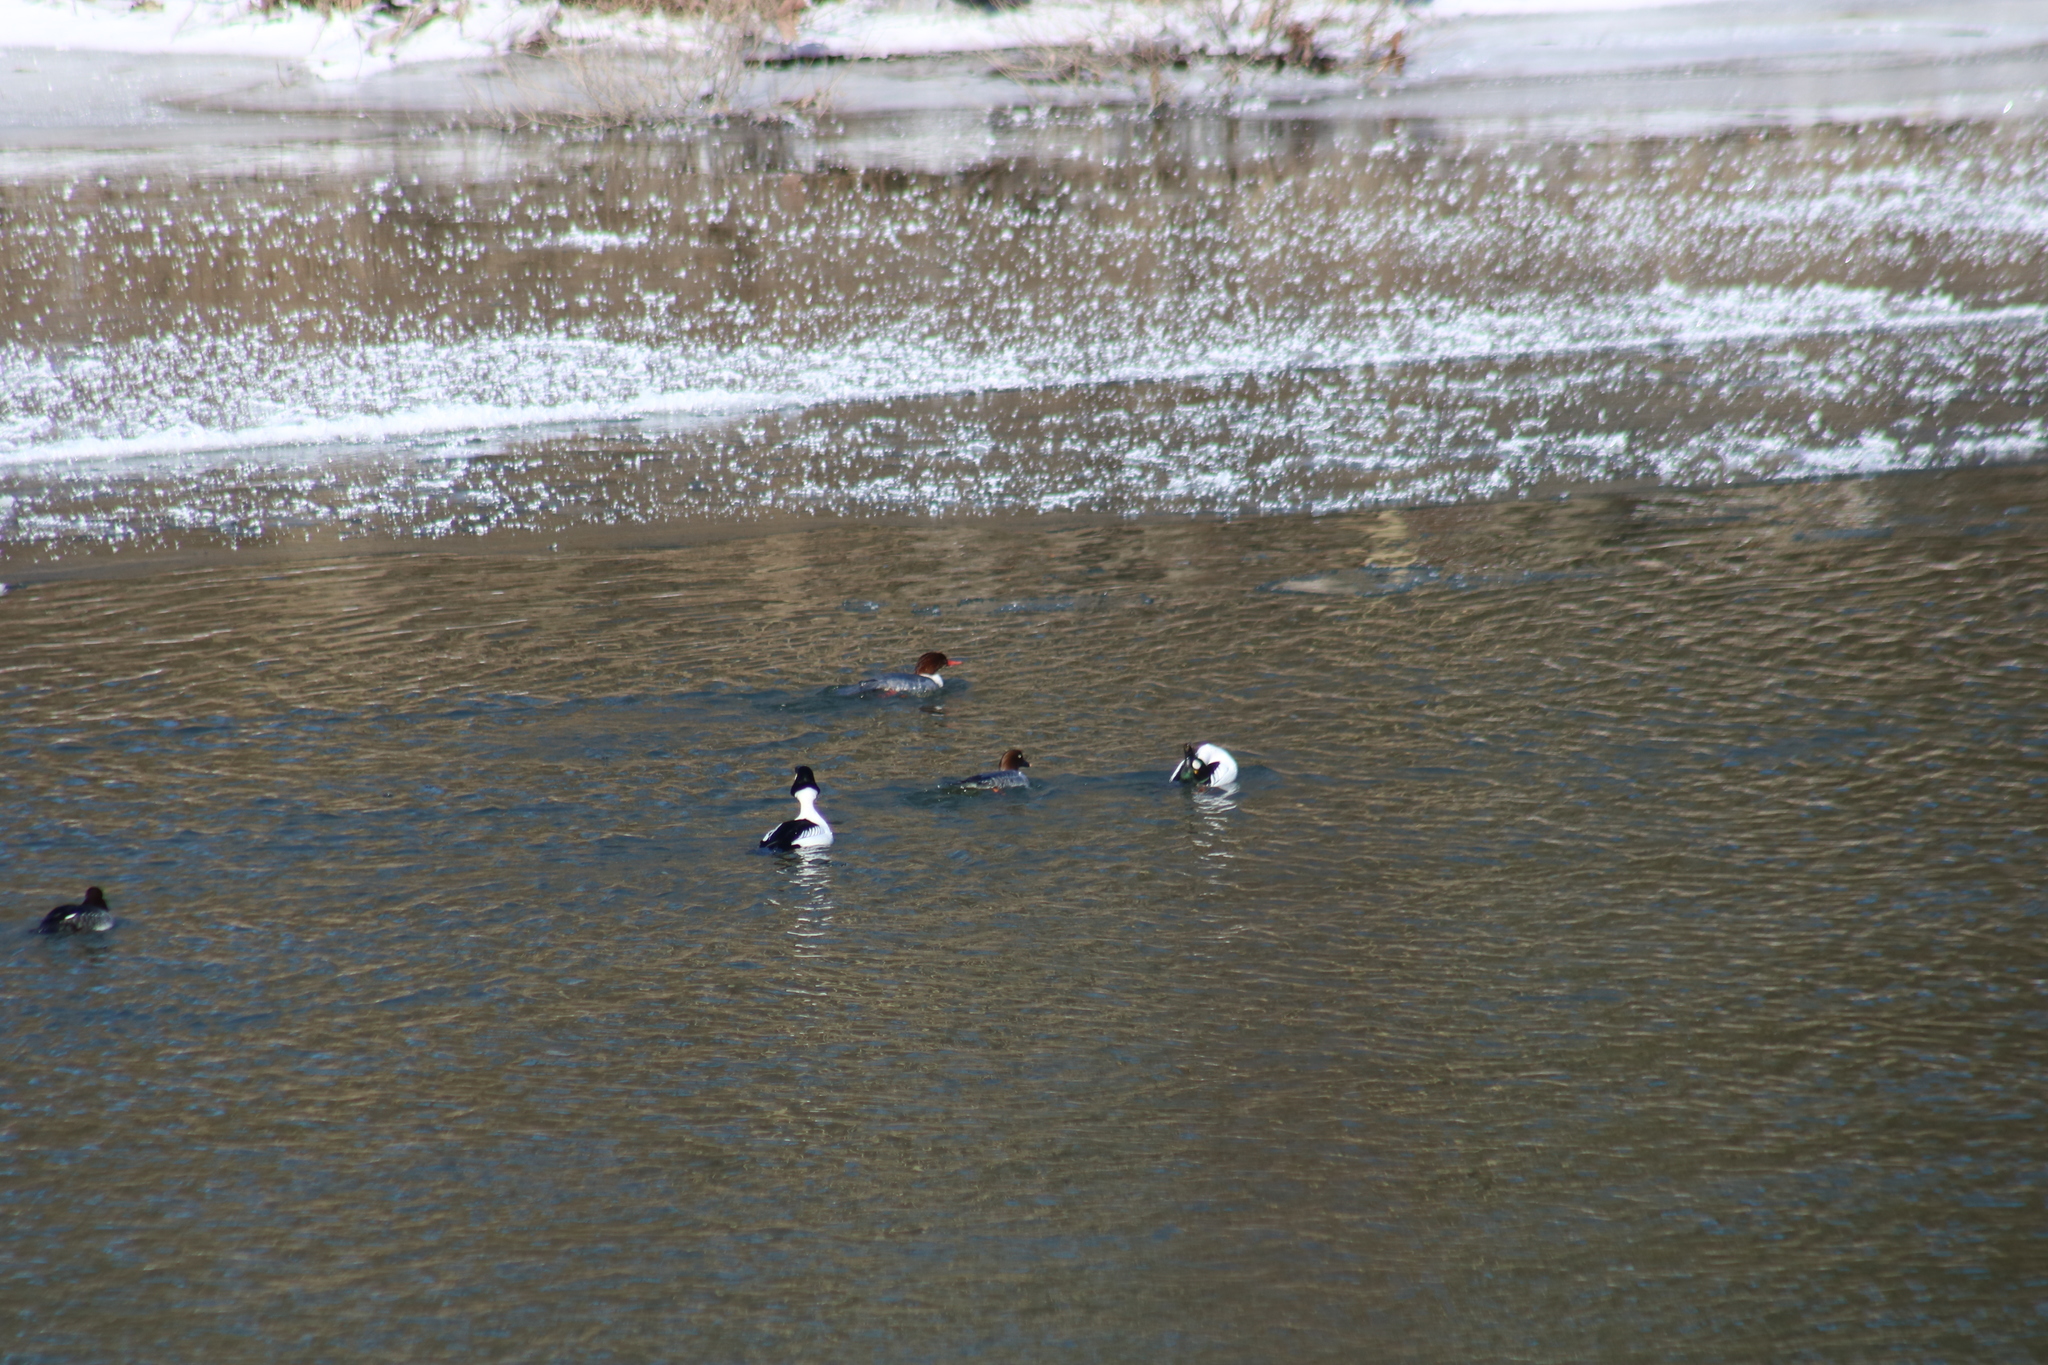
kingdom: Animalia
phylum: Chordata
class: Aves
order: Anseriformes
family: Anatidae
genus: Bucephala
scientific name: Bucephala clangula
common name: Common goldeneye
